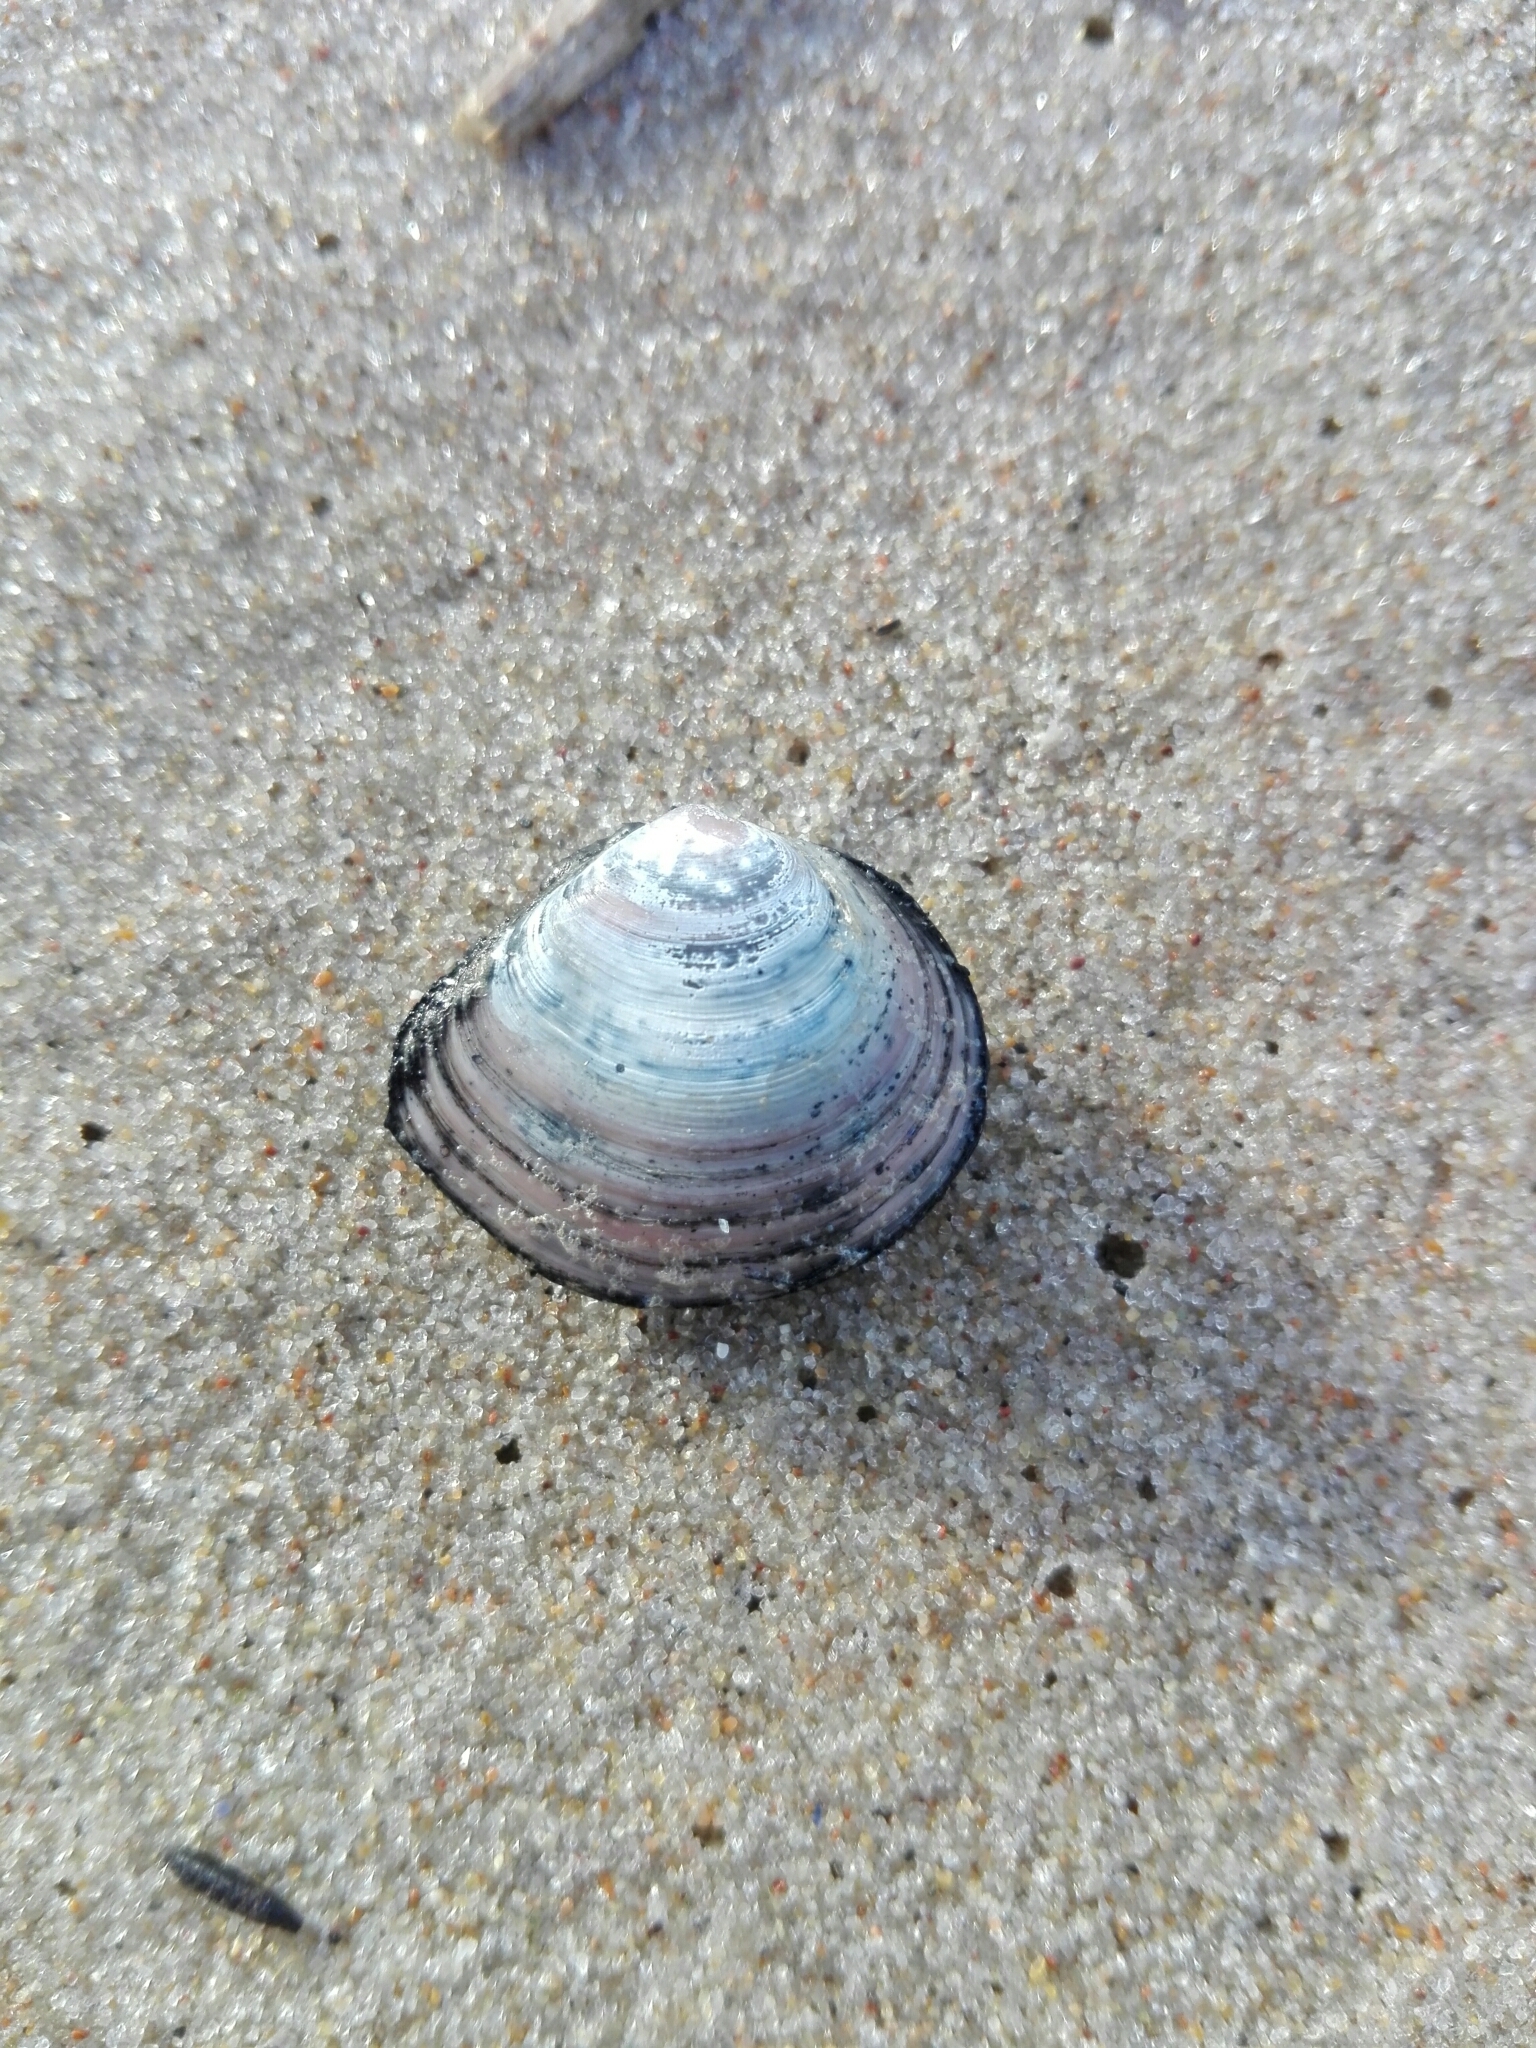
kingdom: Animalia
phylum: Mollusca
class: Bivalvia
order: Cardiida
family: Tellinidae
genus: Macoma
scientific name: Macoma balthica
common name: Baltic tellin
